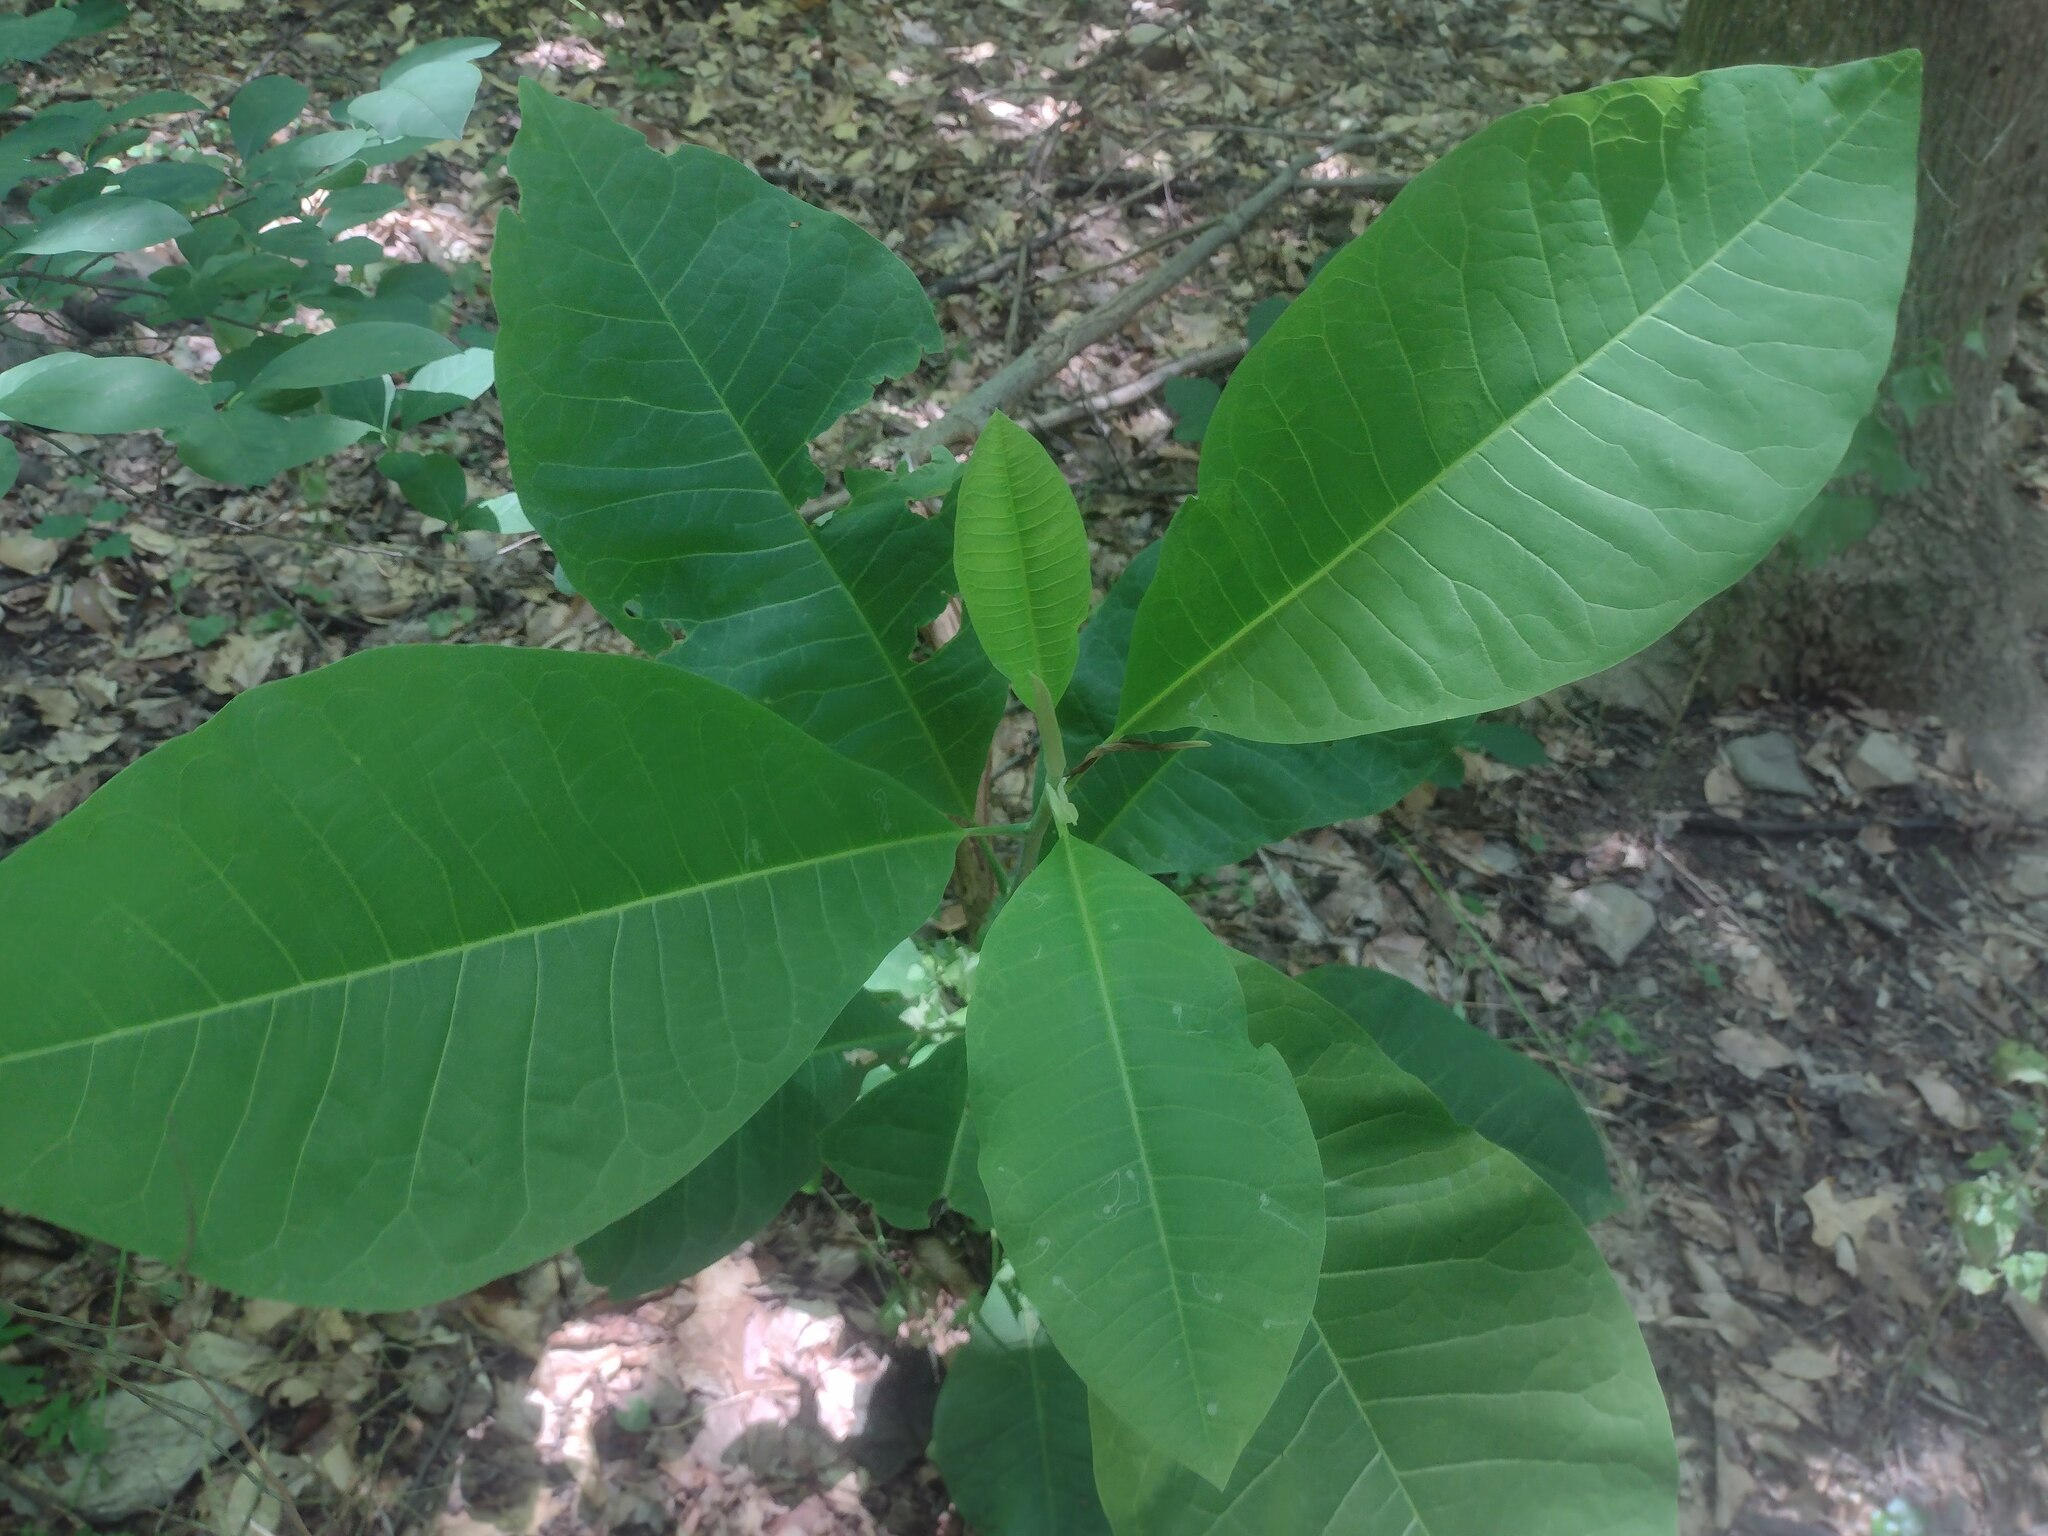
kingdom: Plantae
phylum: Tracheophyta
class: Magnoliopsida
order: Magnoliales
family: Magnoliaceae
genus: Magnolia
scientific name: Magnolia tripetala
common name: Umbrella magnolia
